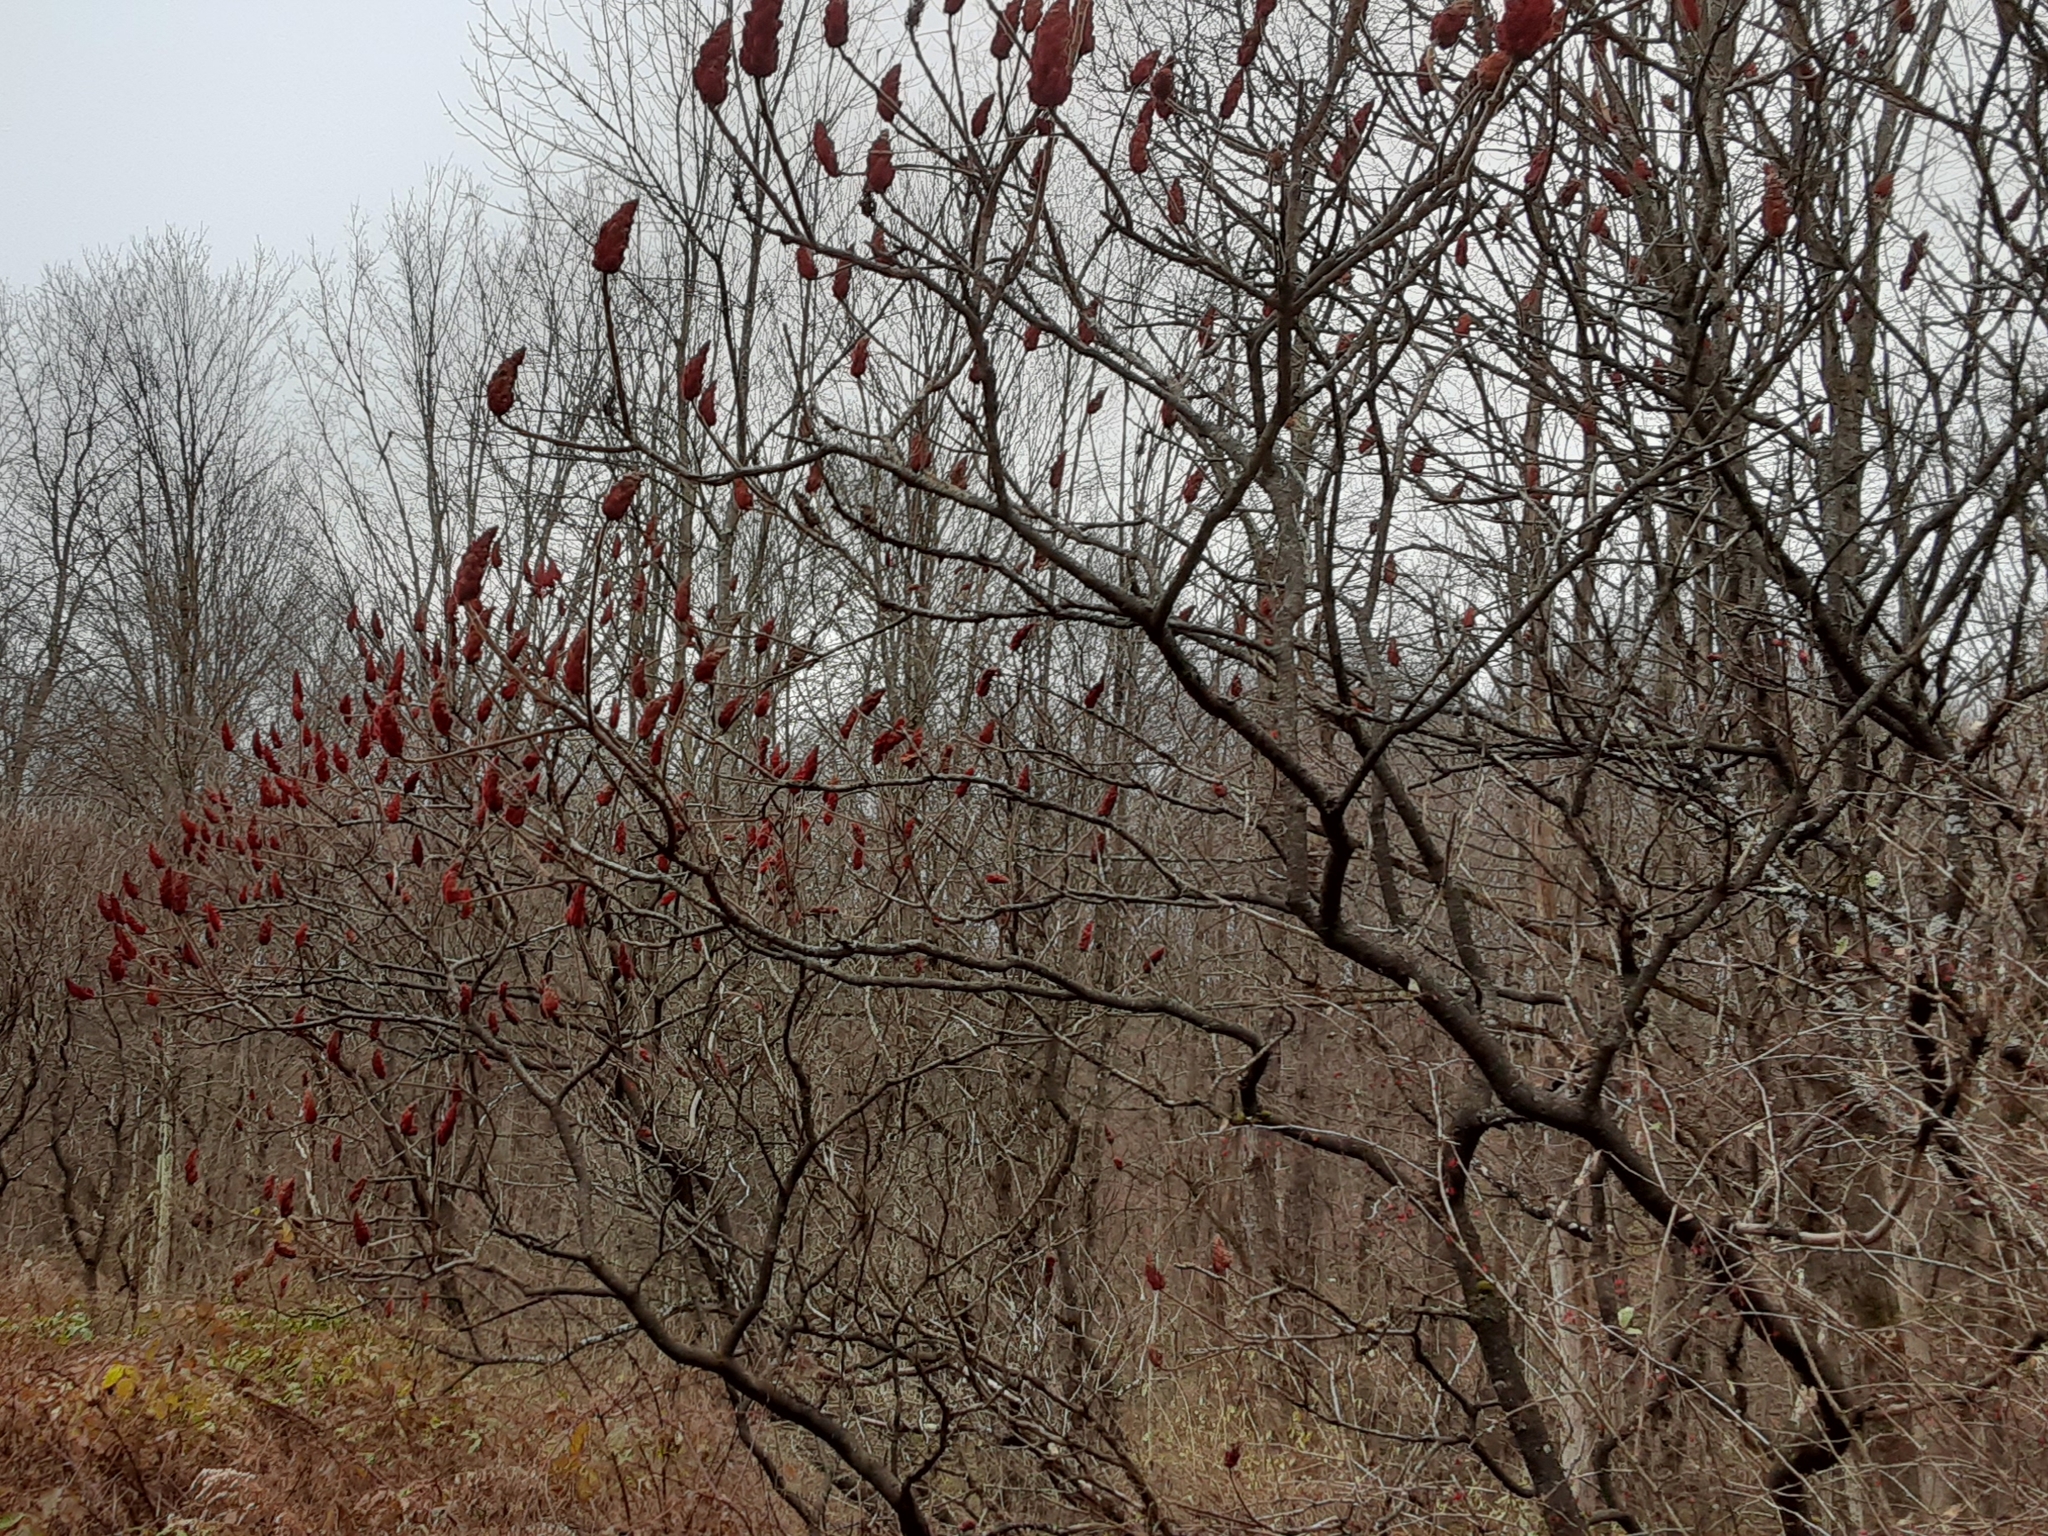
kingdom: Plantae
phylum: Tracheophyta
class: Magnoliopsida
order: Sapindales
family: Anacardiaceae
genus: Rhus
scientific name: Rhus typhina
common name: Staghorn sumac
